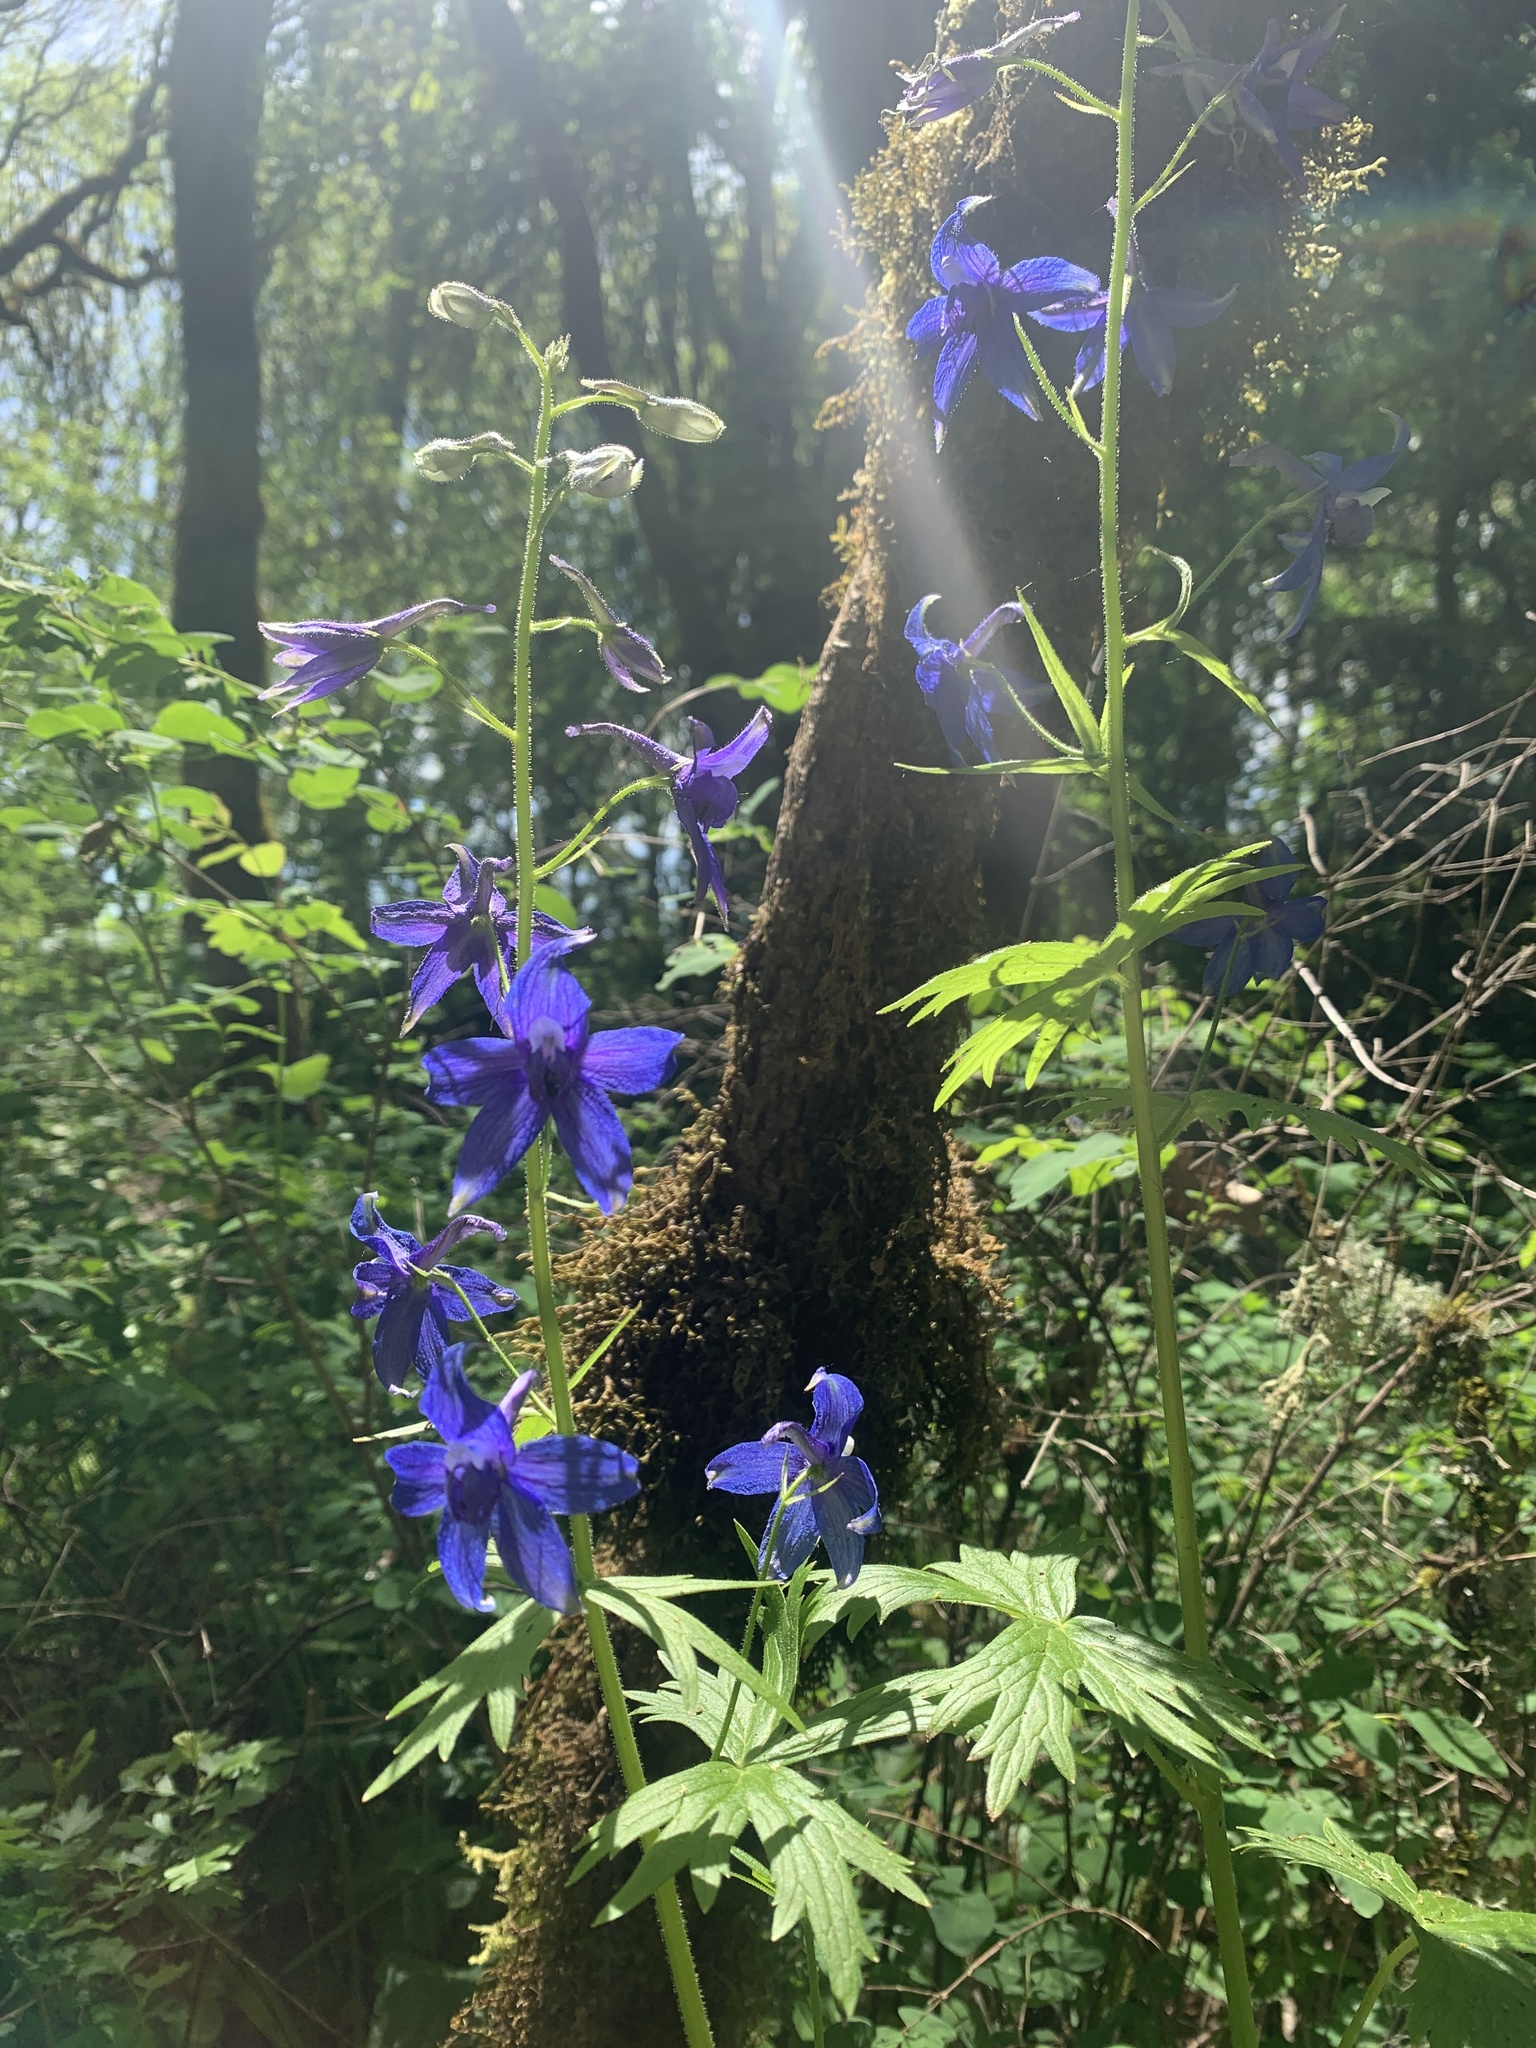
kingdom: Plantae
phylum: Tracheophyta
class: Magnoliopsida
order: Ranunculales
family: Ranunculaceae
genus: Delphinium
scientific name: Delphinium trolliifolium
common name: Cow-poison
